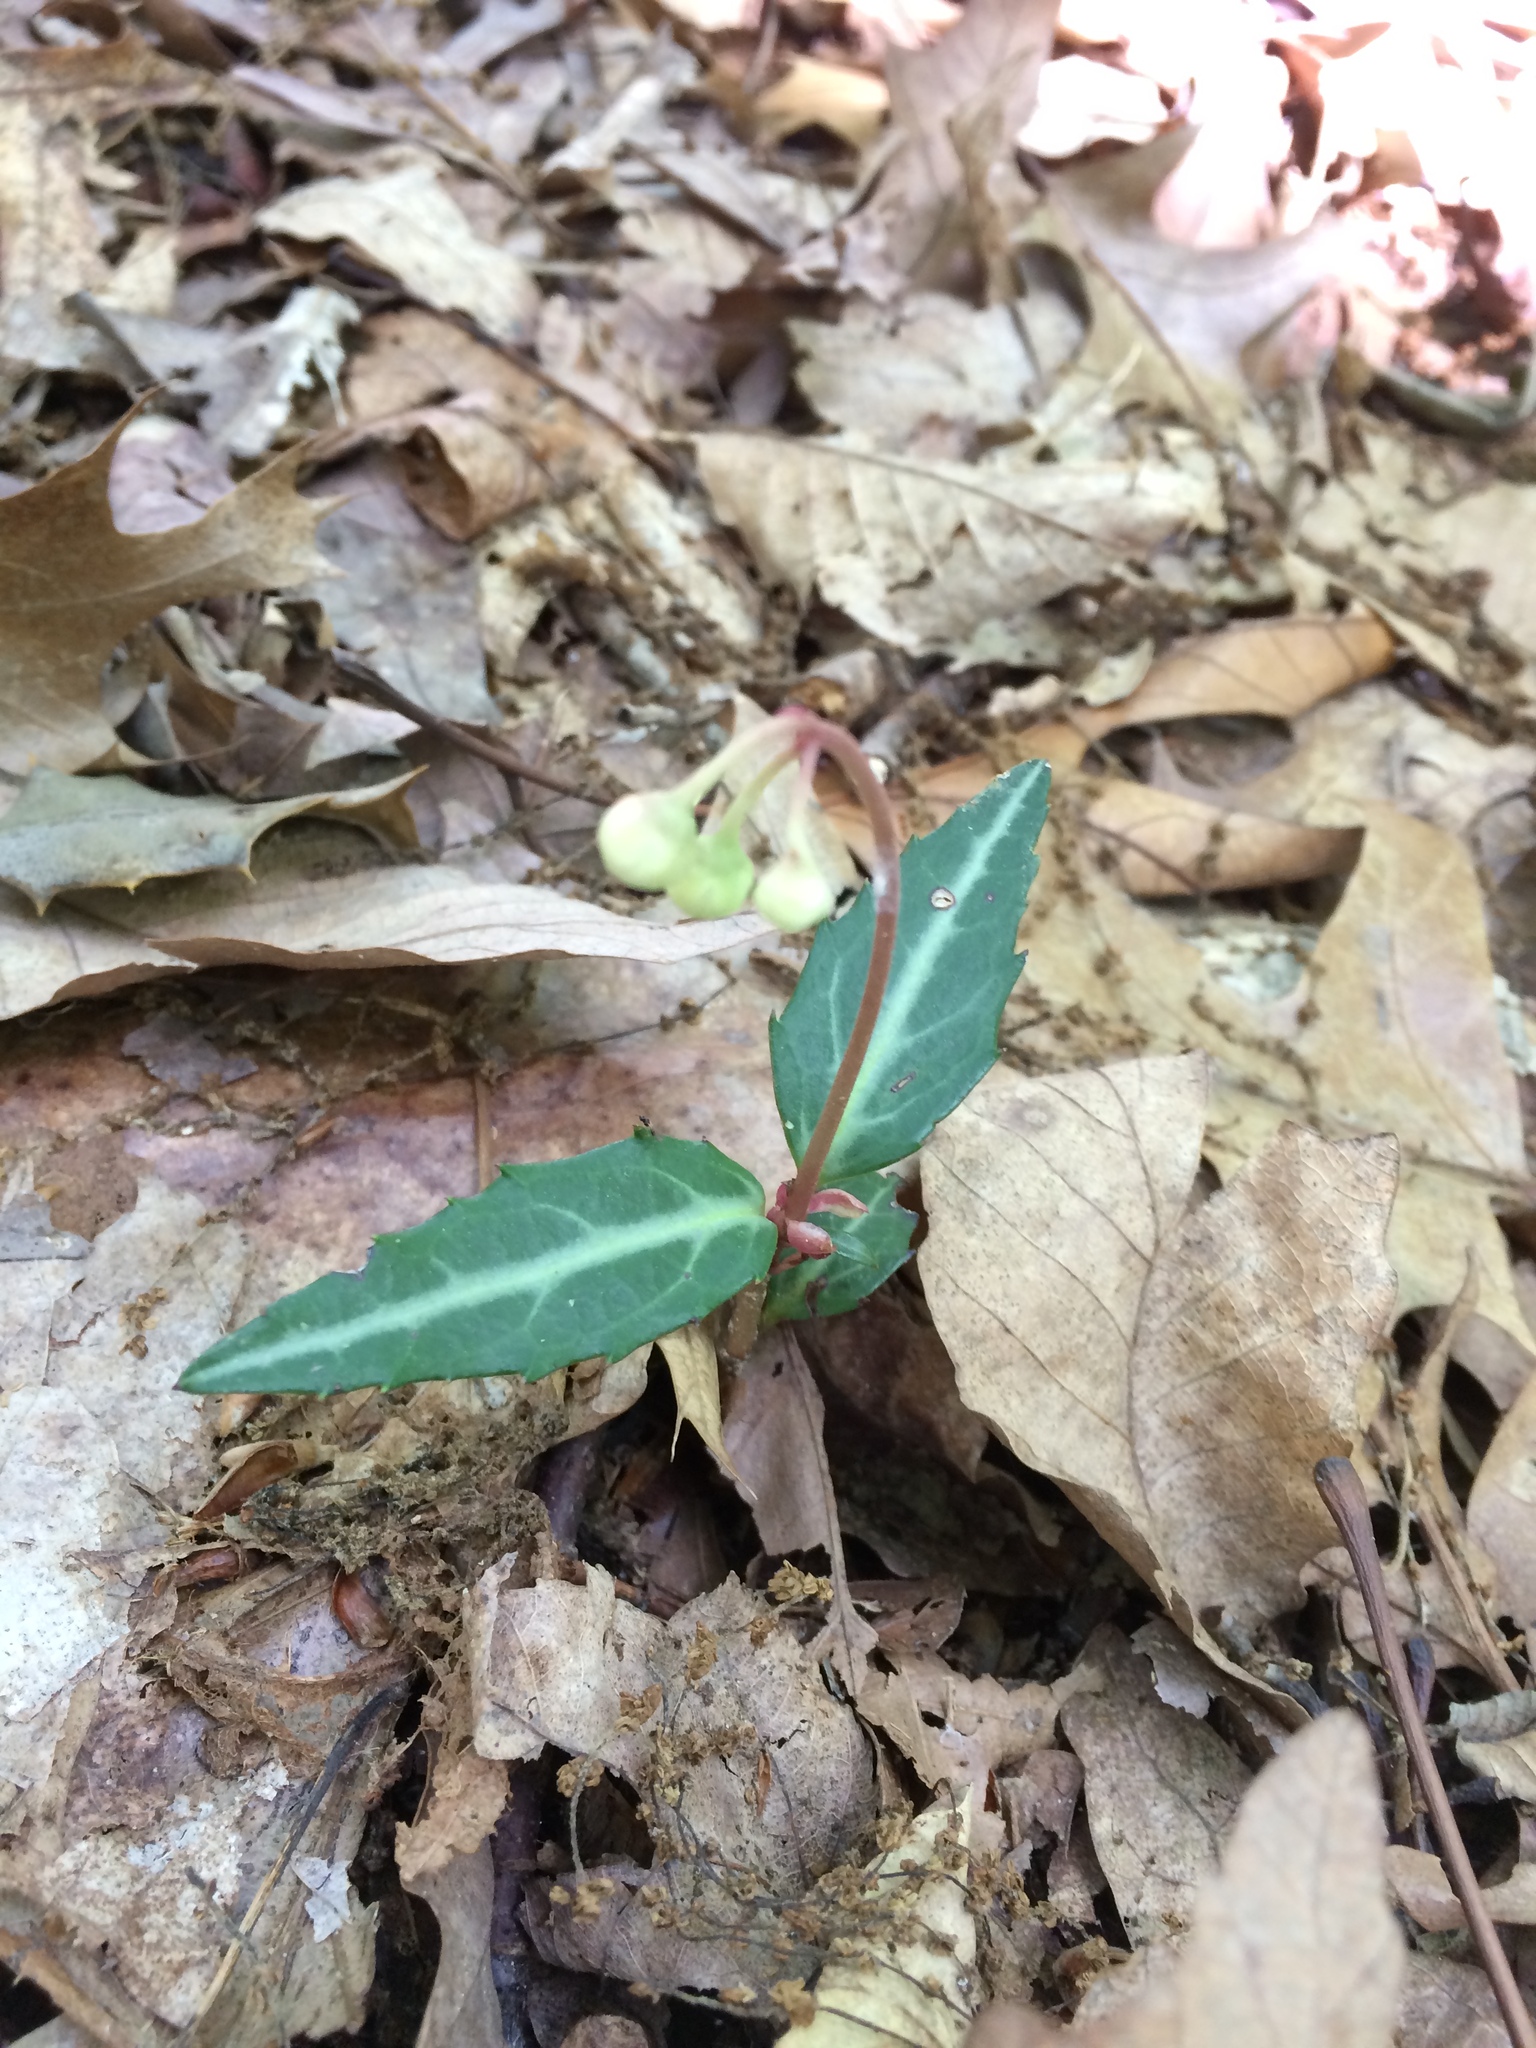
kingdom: Plantae
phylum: Tracheophyta
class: Magnoliopsida
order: Ericales
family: Ericaceae
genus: Chimaphila
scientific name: Chimaphila maculata
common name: Spotted pipsissewa
